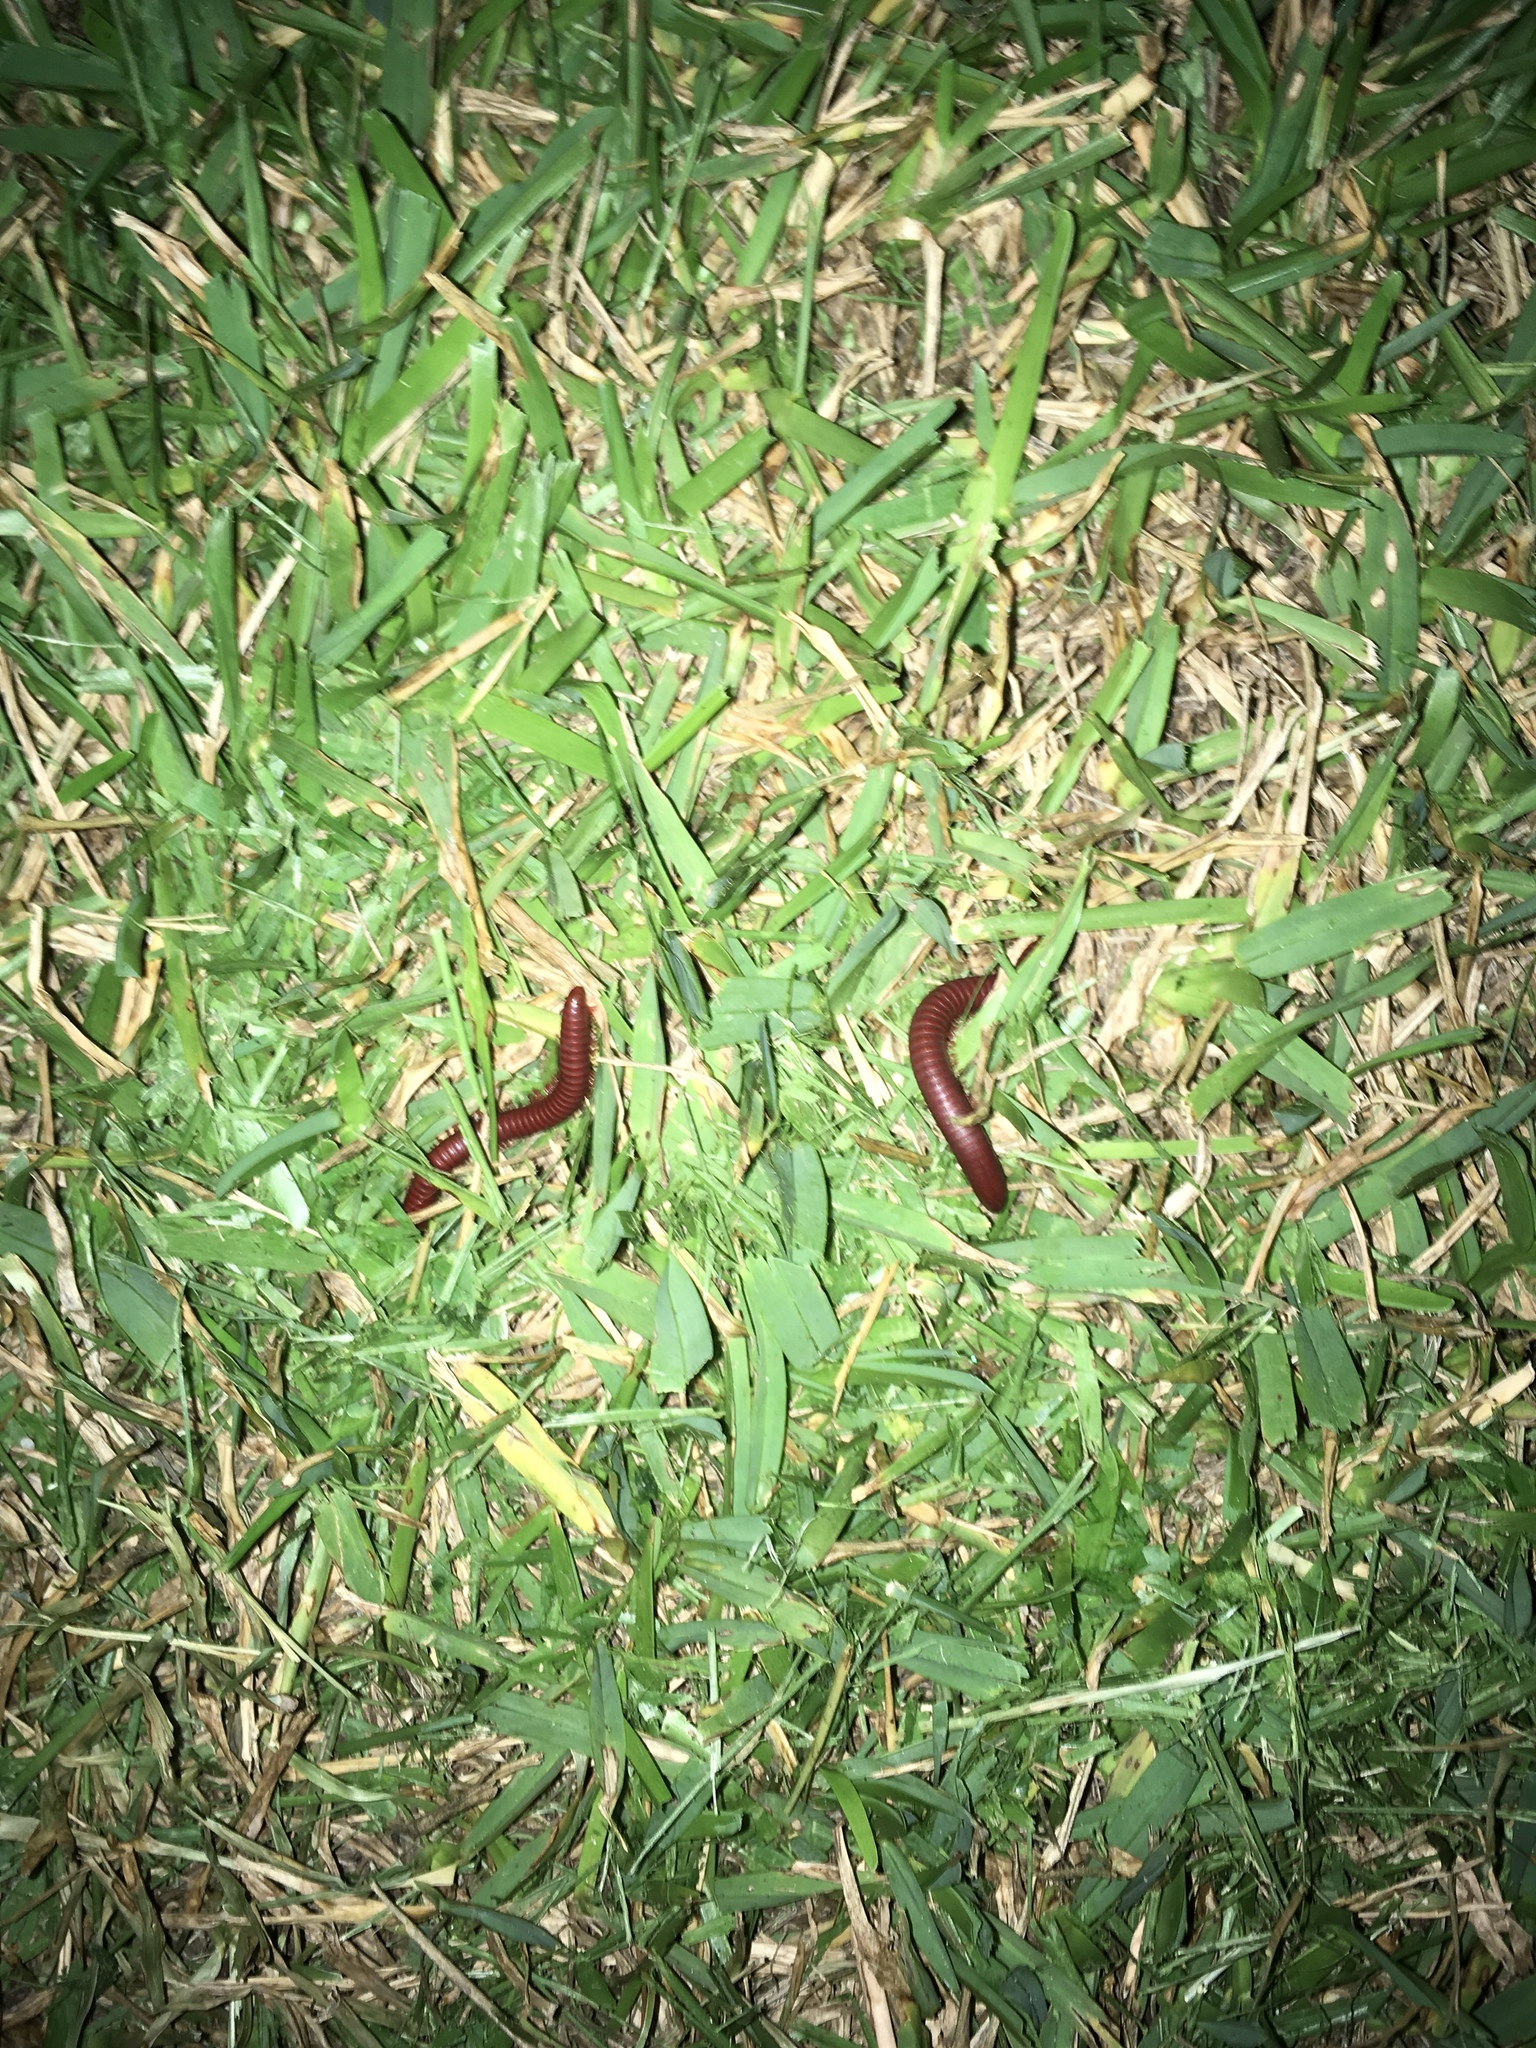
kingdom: Animalia
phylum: Arthropoda
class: Diplopoda
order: Spirobolida
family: Pachybolidae
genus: Trigoniulus
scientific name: Trigoniulus corallinus
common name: Millipede
